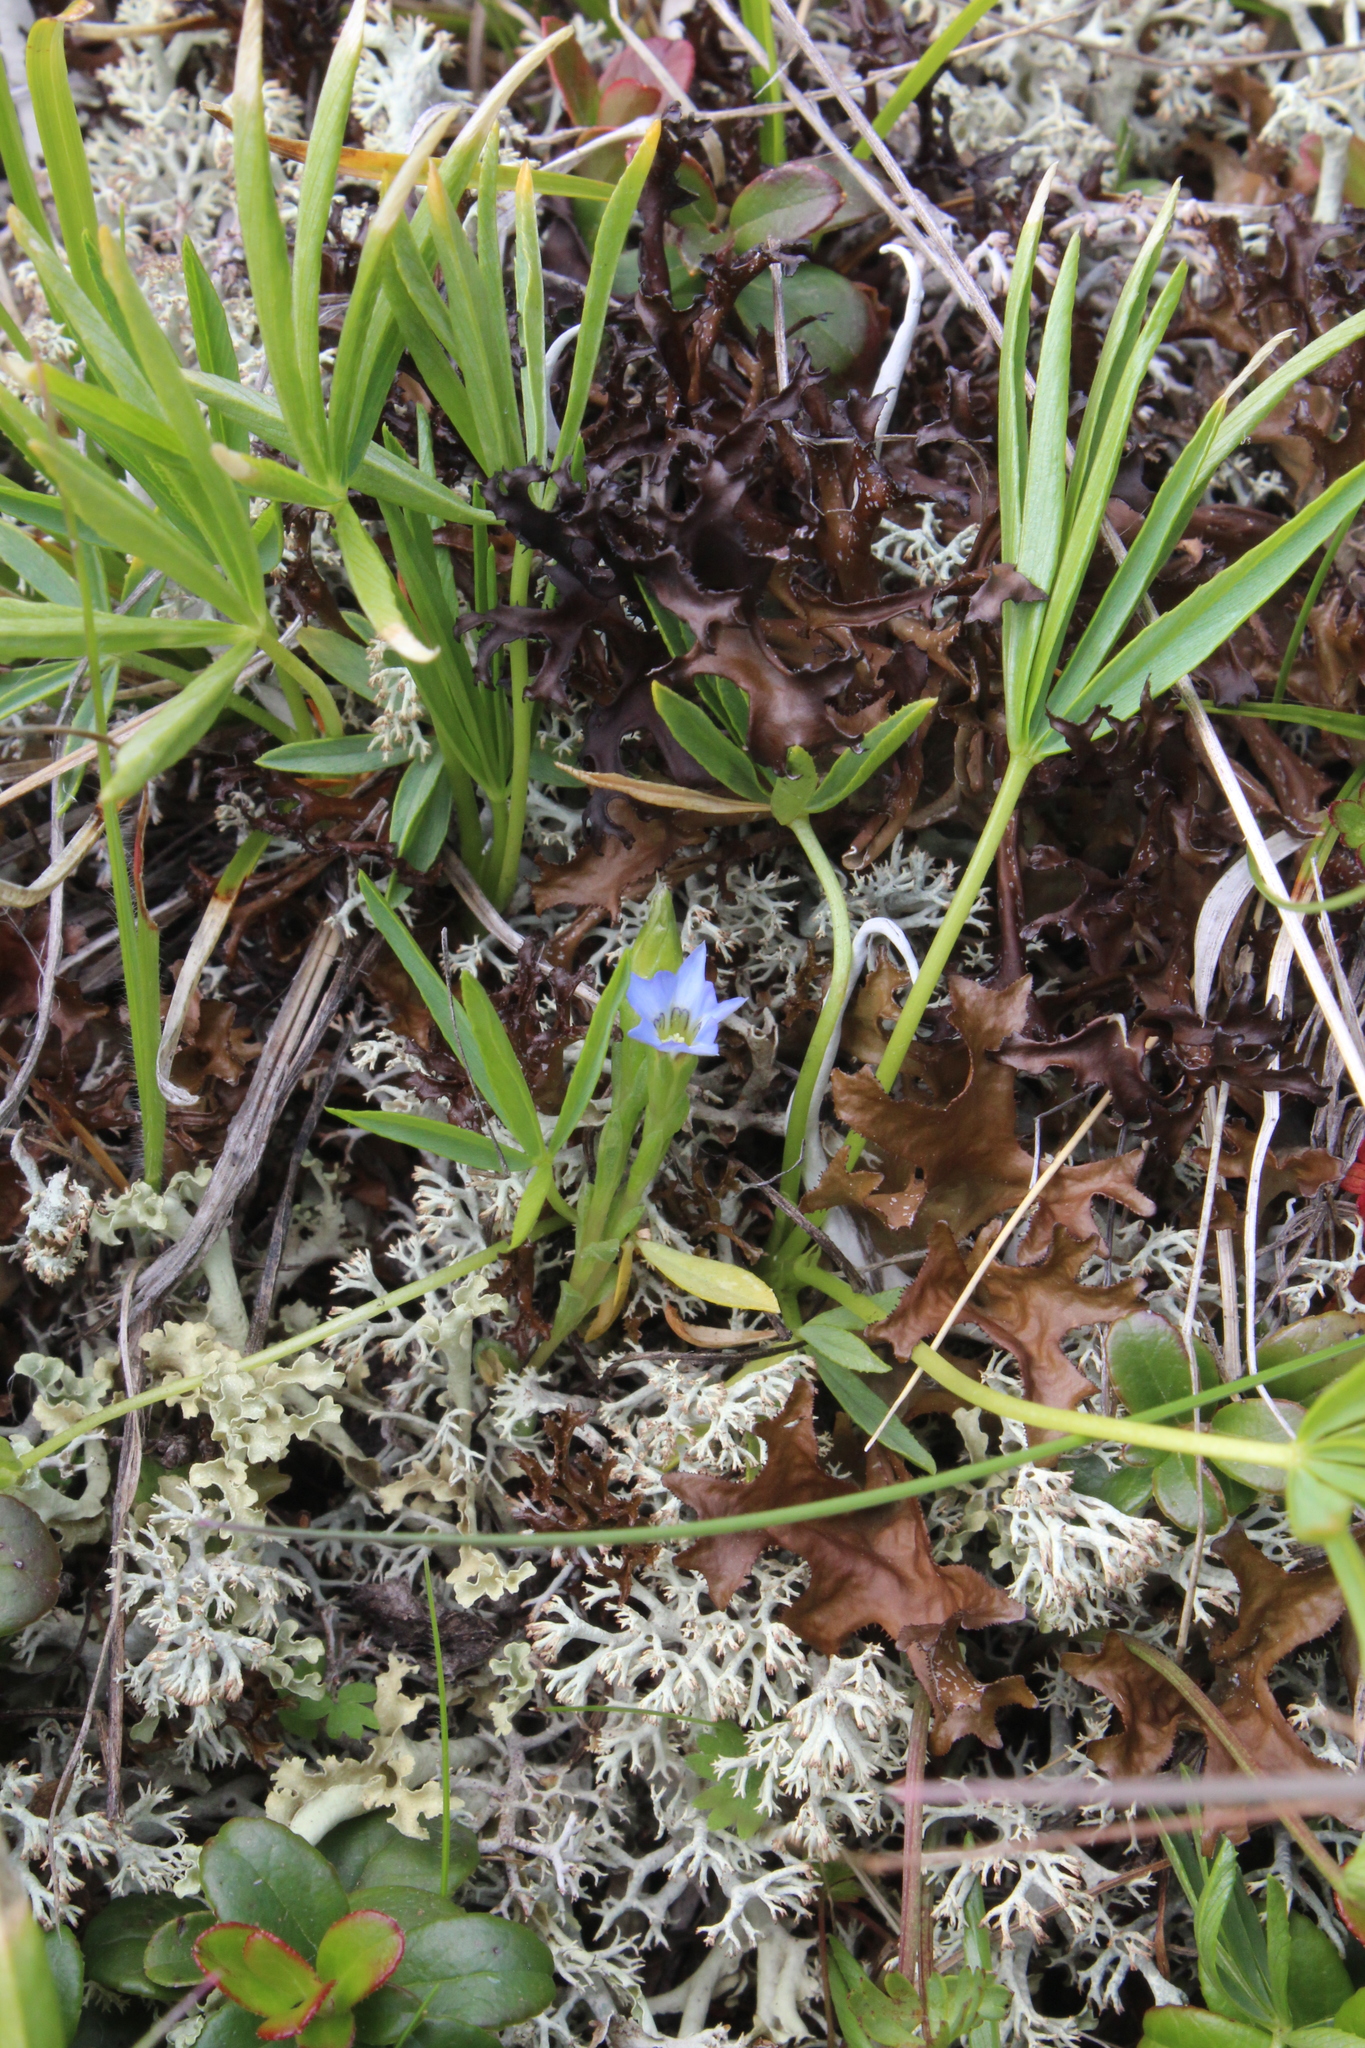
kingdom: Plantae
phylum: Tracheophyta
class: Magnoliopsida
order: Gentianales
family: Gentianaceae
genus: Gentiana
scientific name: Gentiana aquatica
